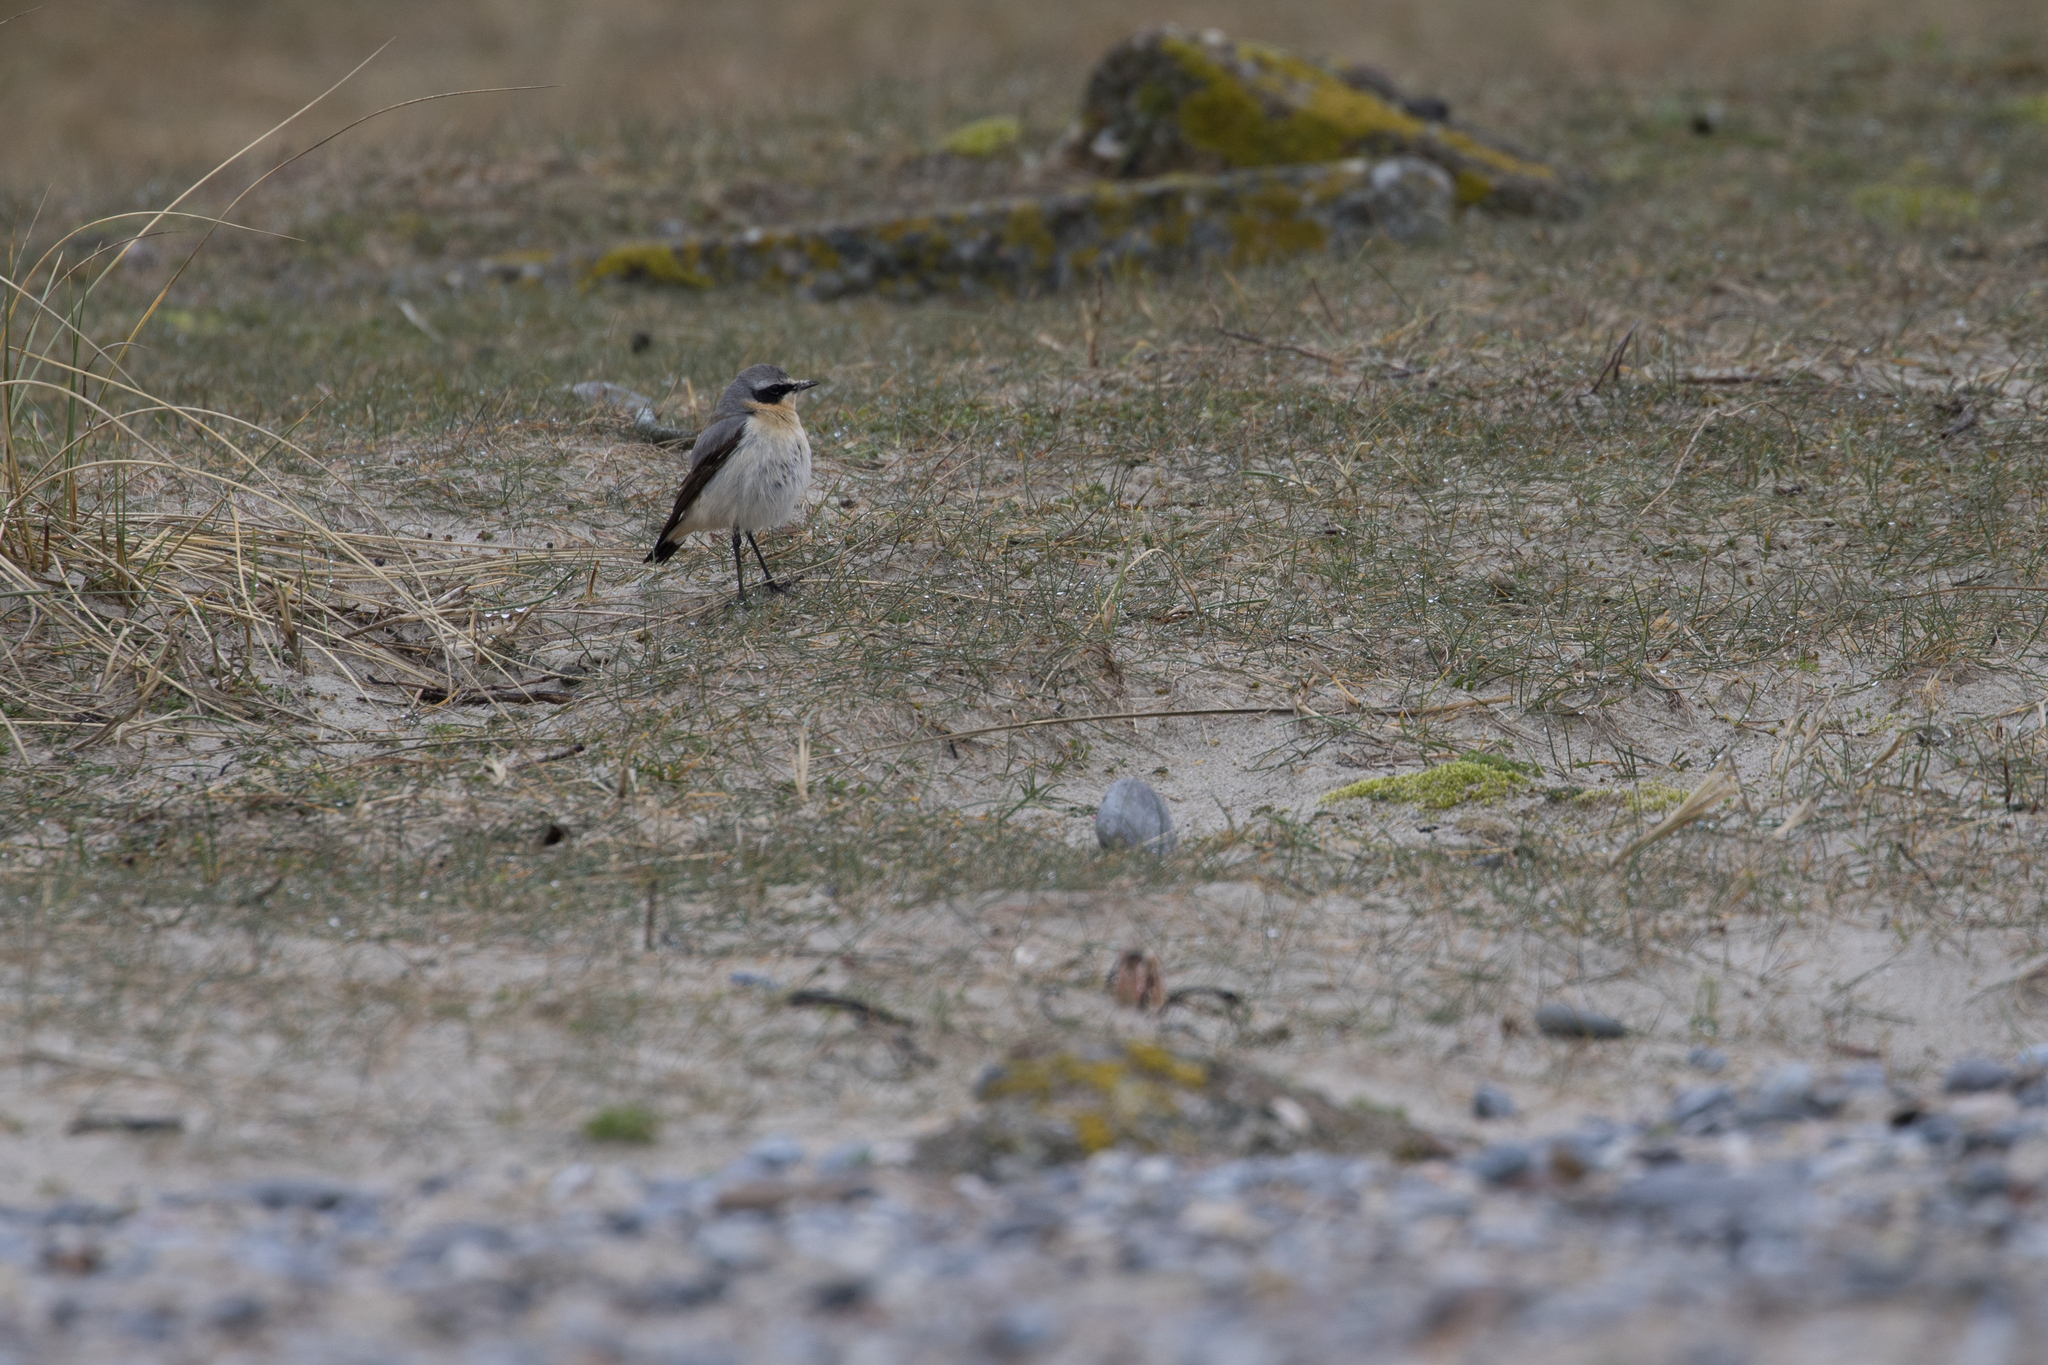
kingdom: Animalia
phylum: Chordata
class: Aves
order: Passeriformes
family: Muscicapidae
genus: Oenanthe
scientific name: Oenanthe oenanthe
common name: Northern wheatear
